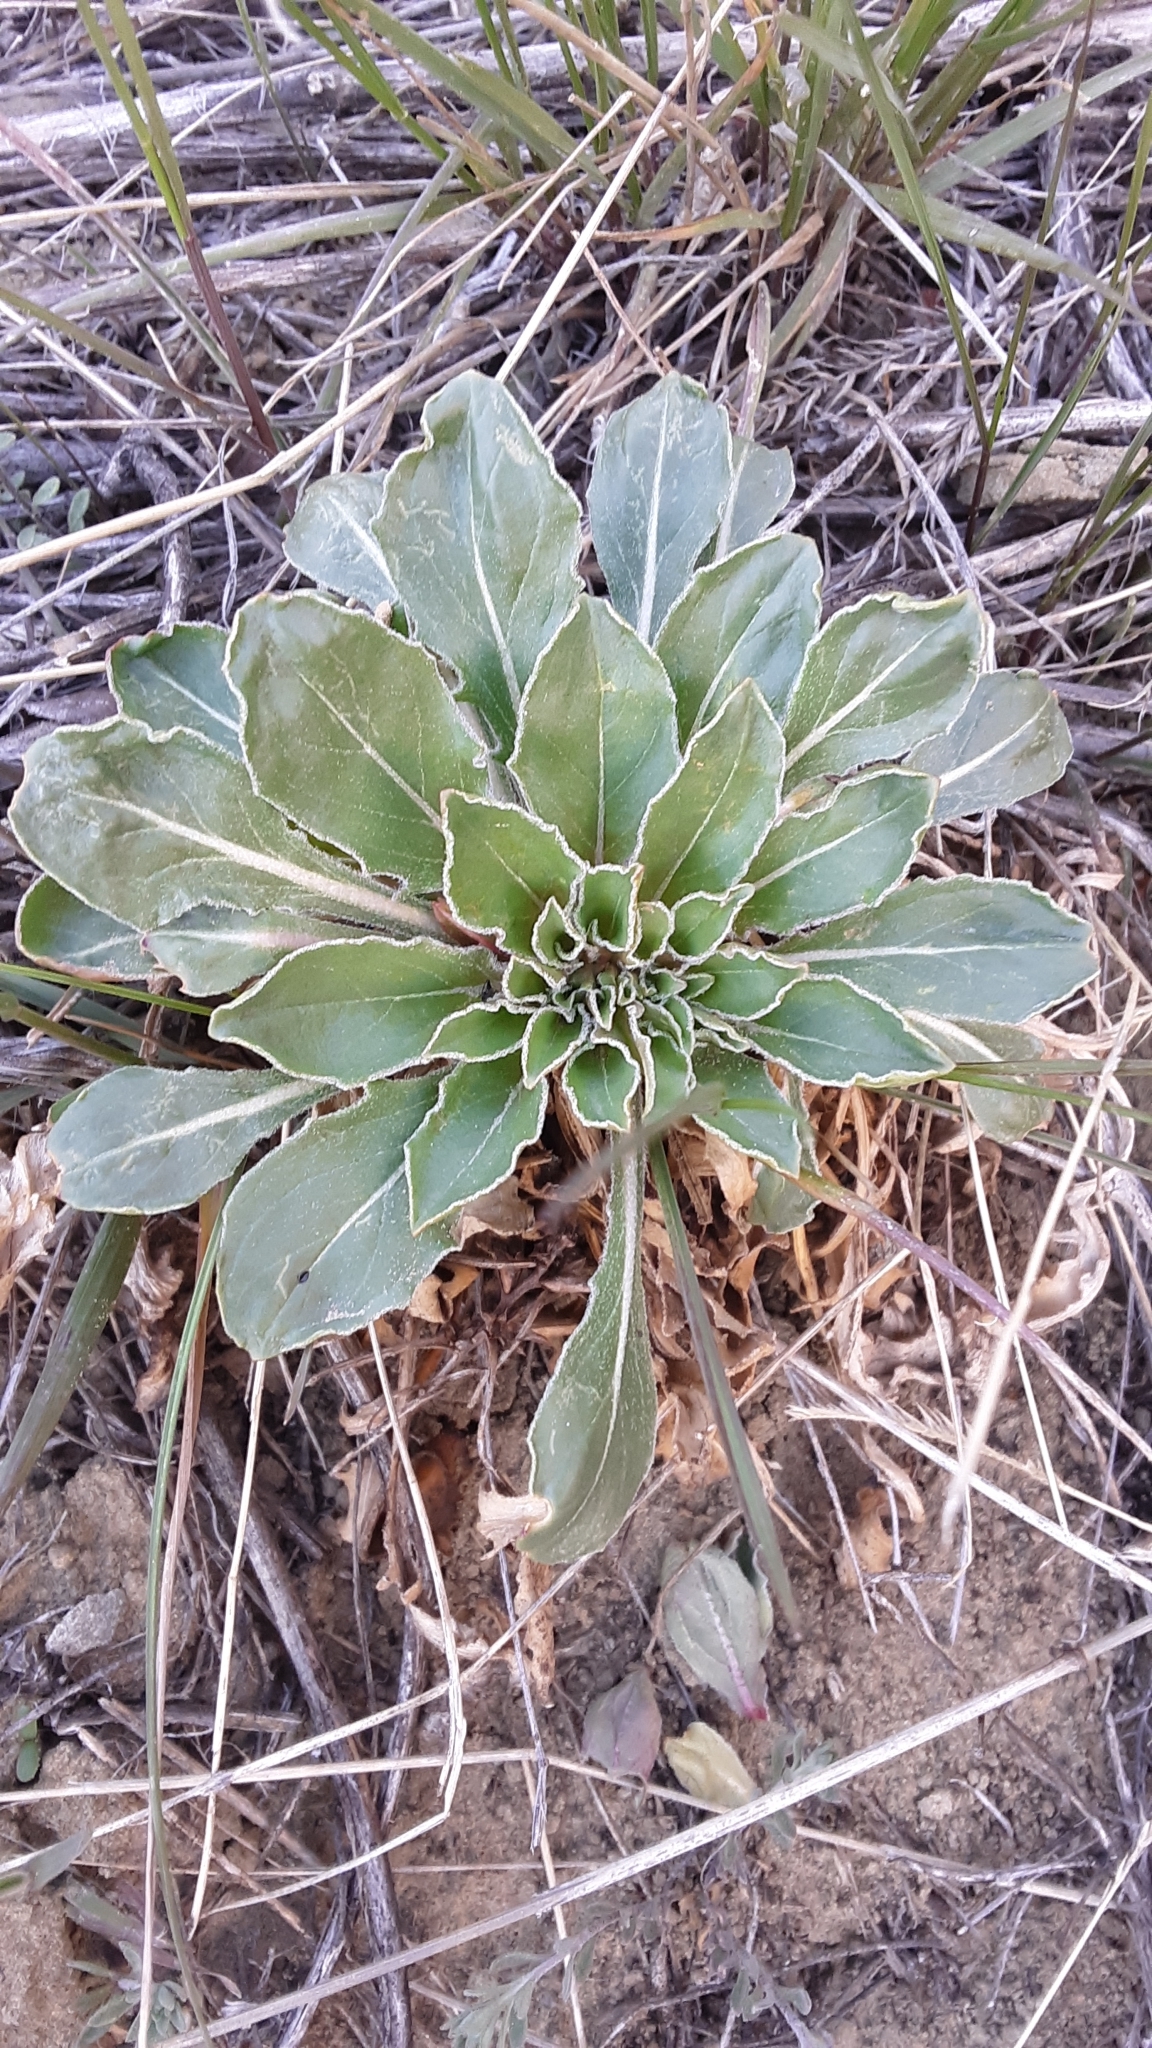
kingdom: Plantae
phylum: Tracheophyta
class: Magnoliopsida
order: Myrtales
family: Onagraceae
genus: Oenothera
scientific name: Oenothera cespitosa
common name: Tufted evening-primrose
